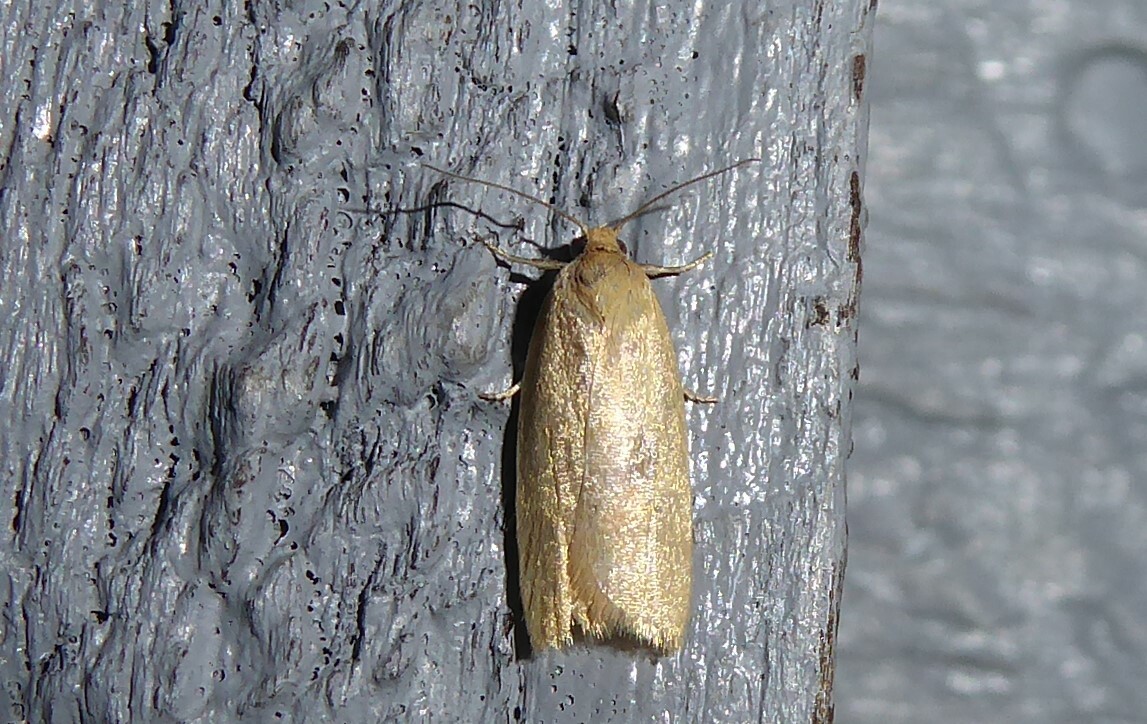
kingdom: Animalia
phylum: Arthropoda
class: Insecta
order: Lepidoptera
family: Tortricidae
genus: Clepsis
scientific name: Clepsis
